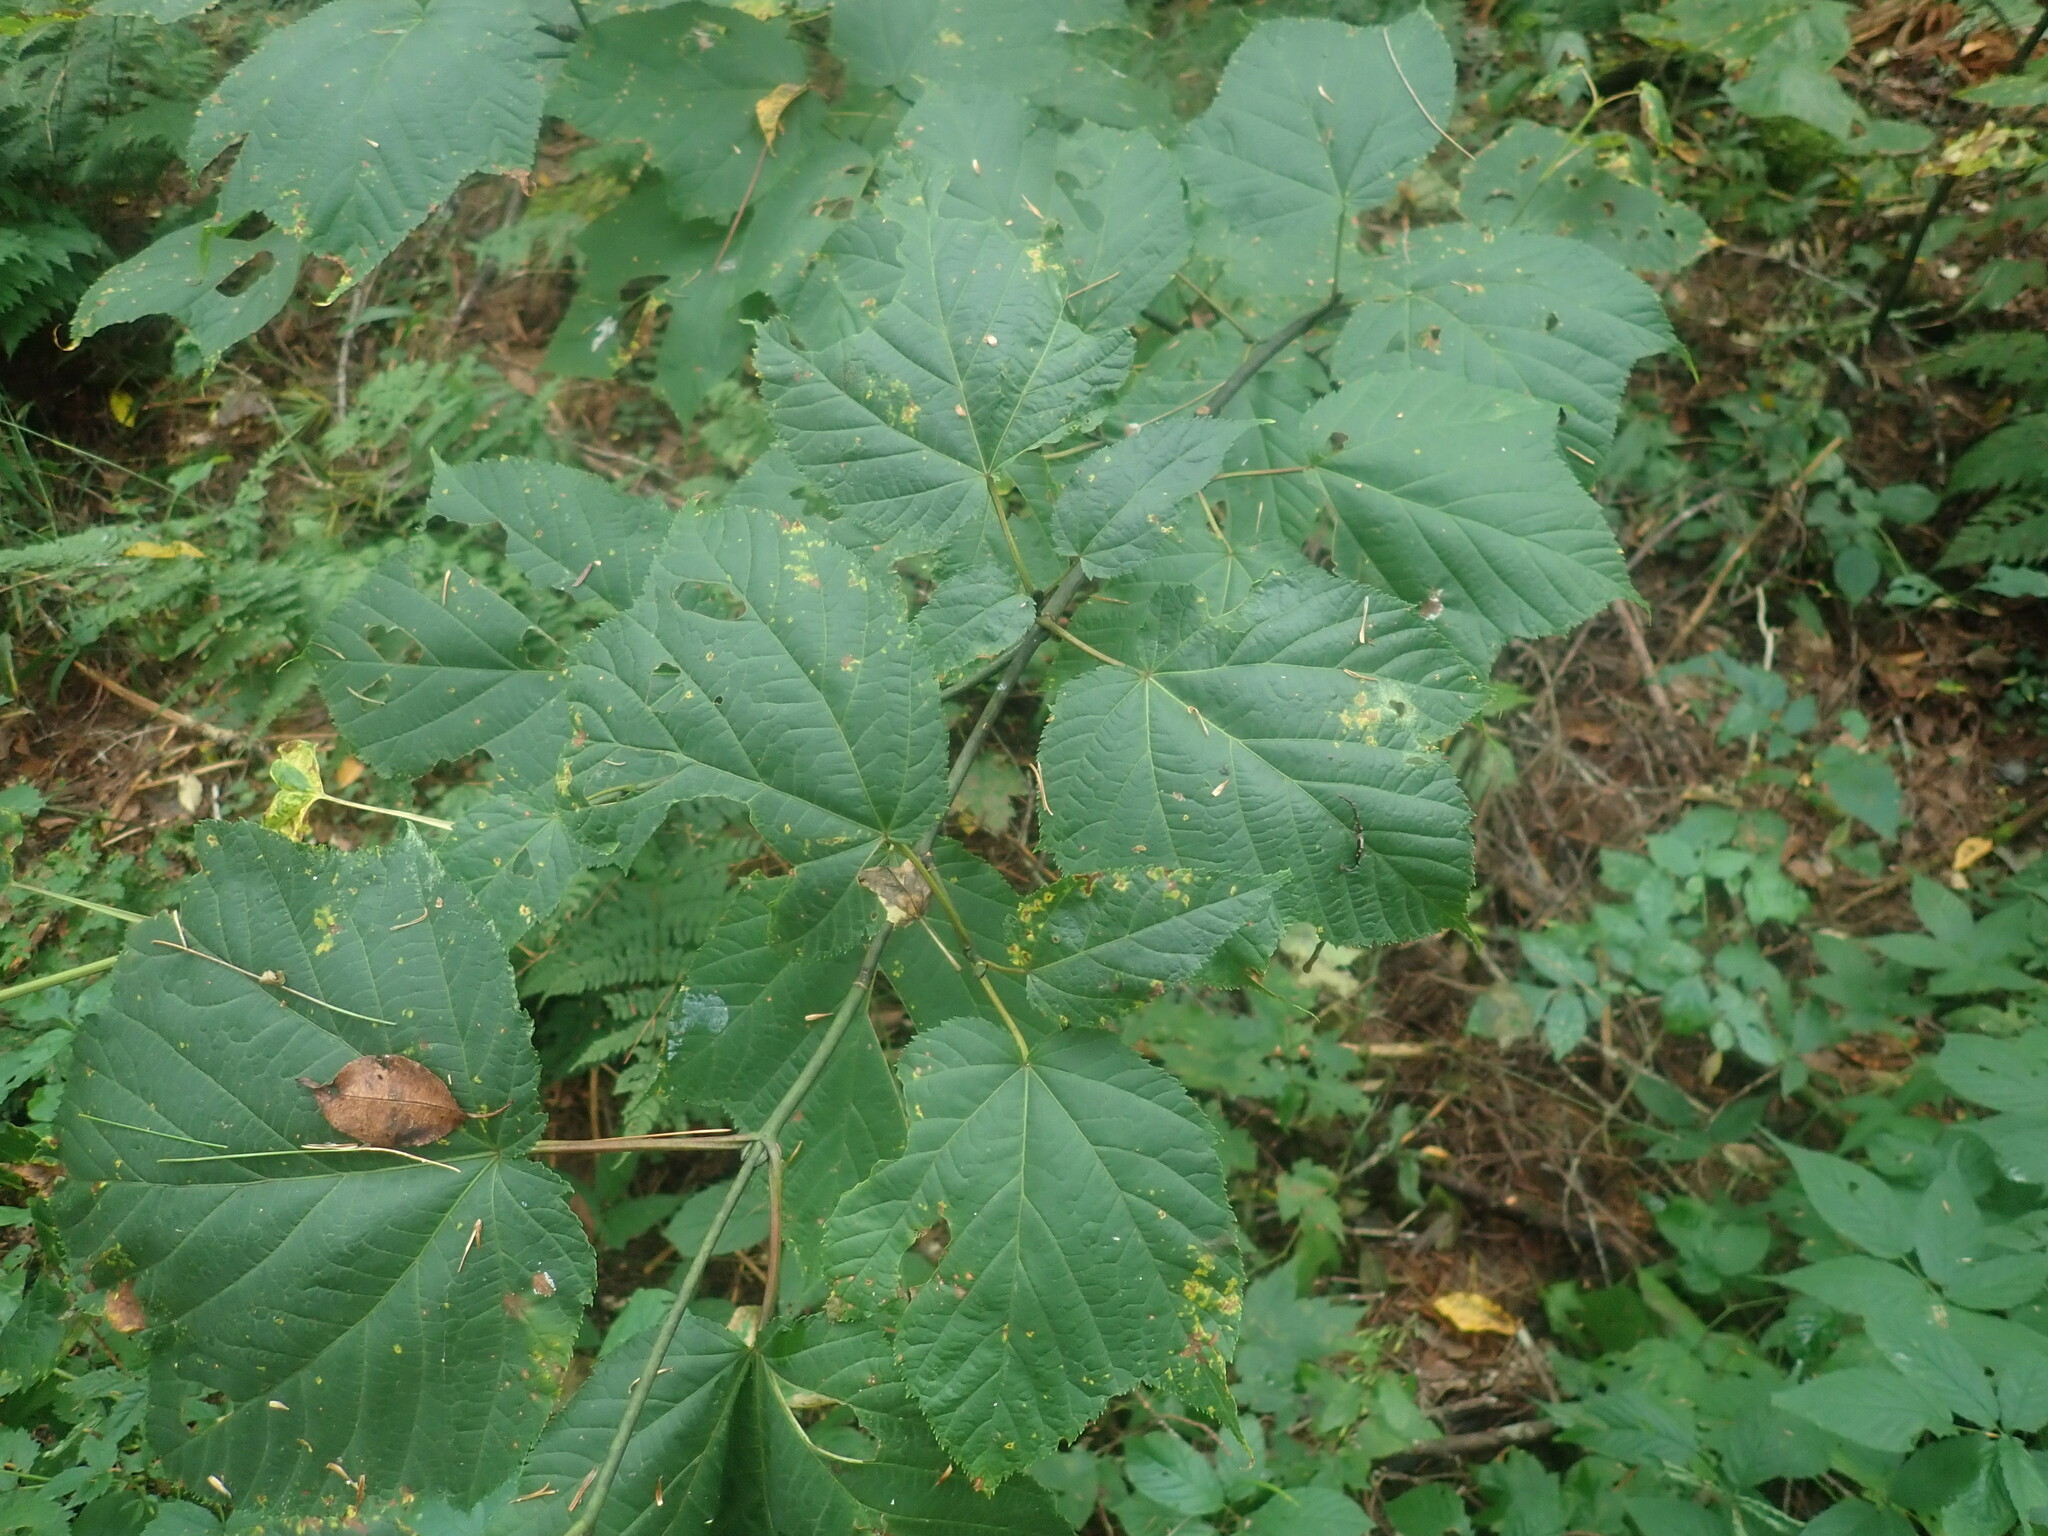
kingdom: Plantae
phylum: Tracheophyta
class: Magnoliopsida
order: Sapindales
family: Sapindaceae
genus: Acer
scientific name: Acer pensylvanicum
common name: Moosewood
